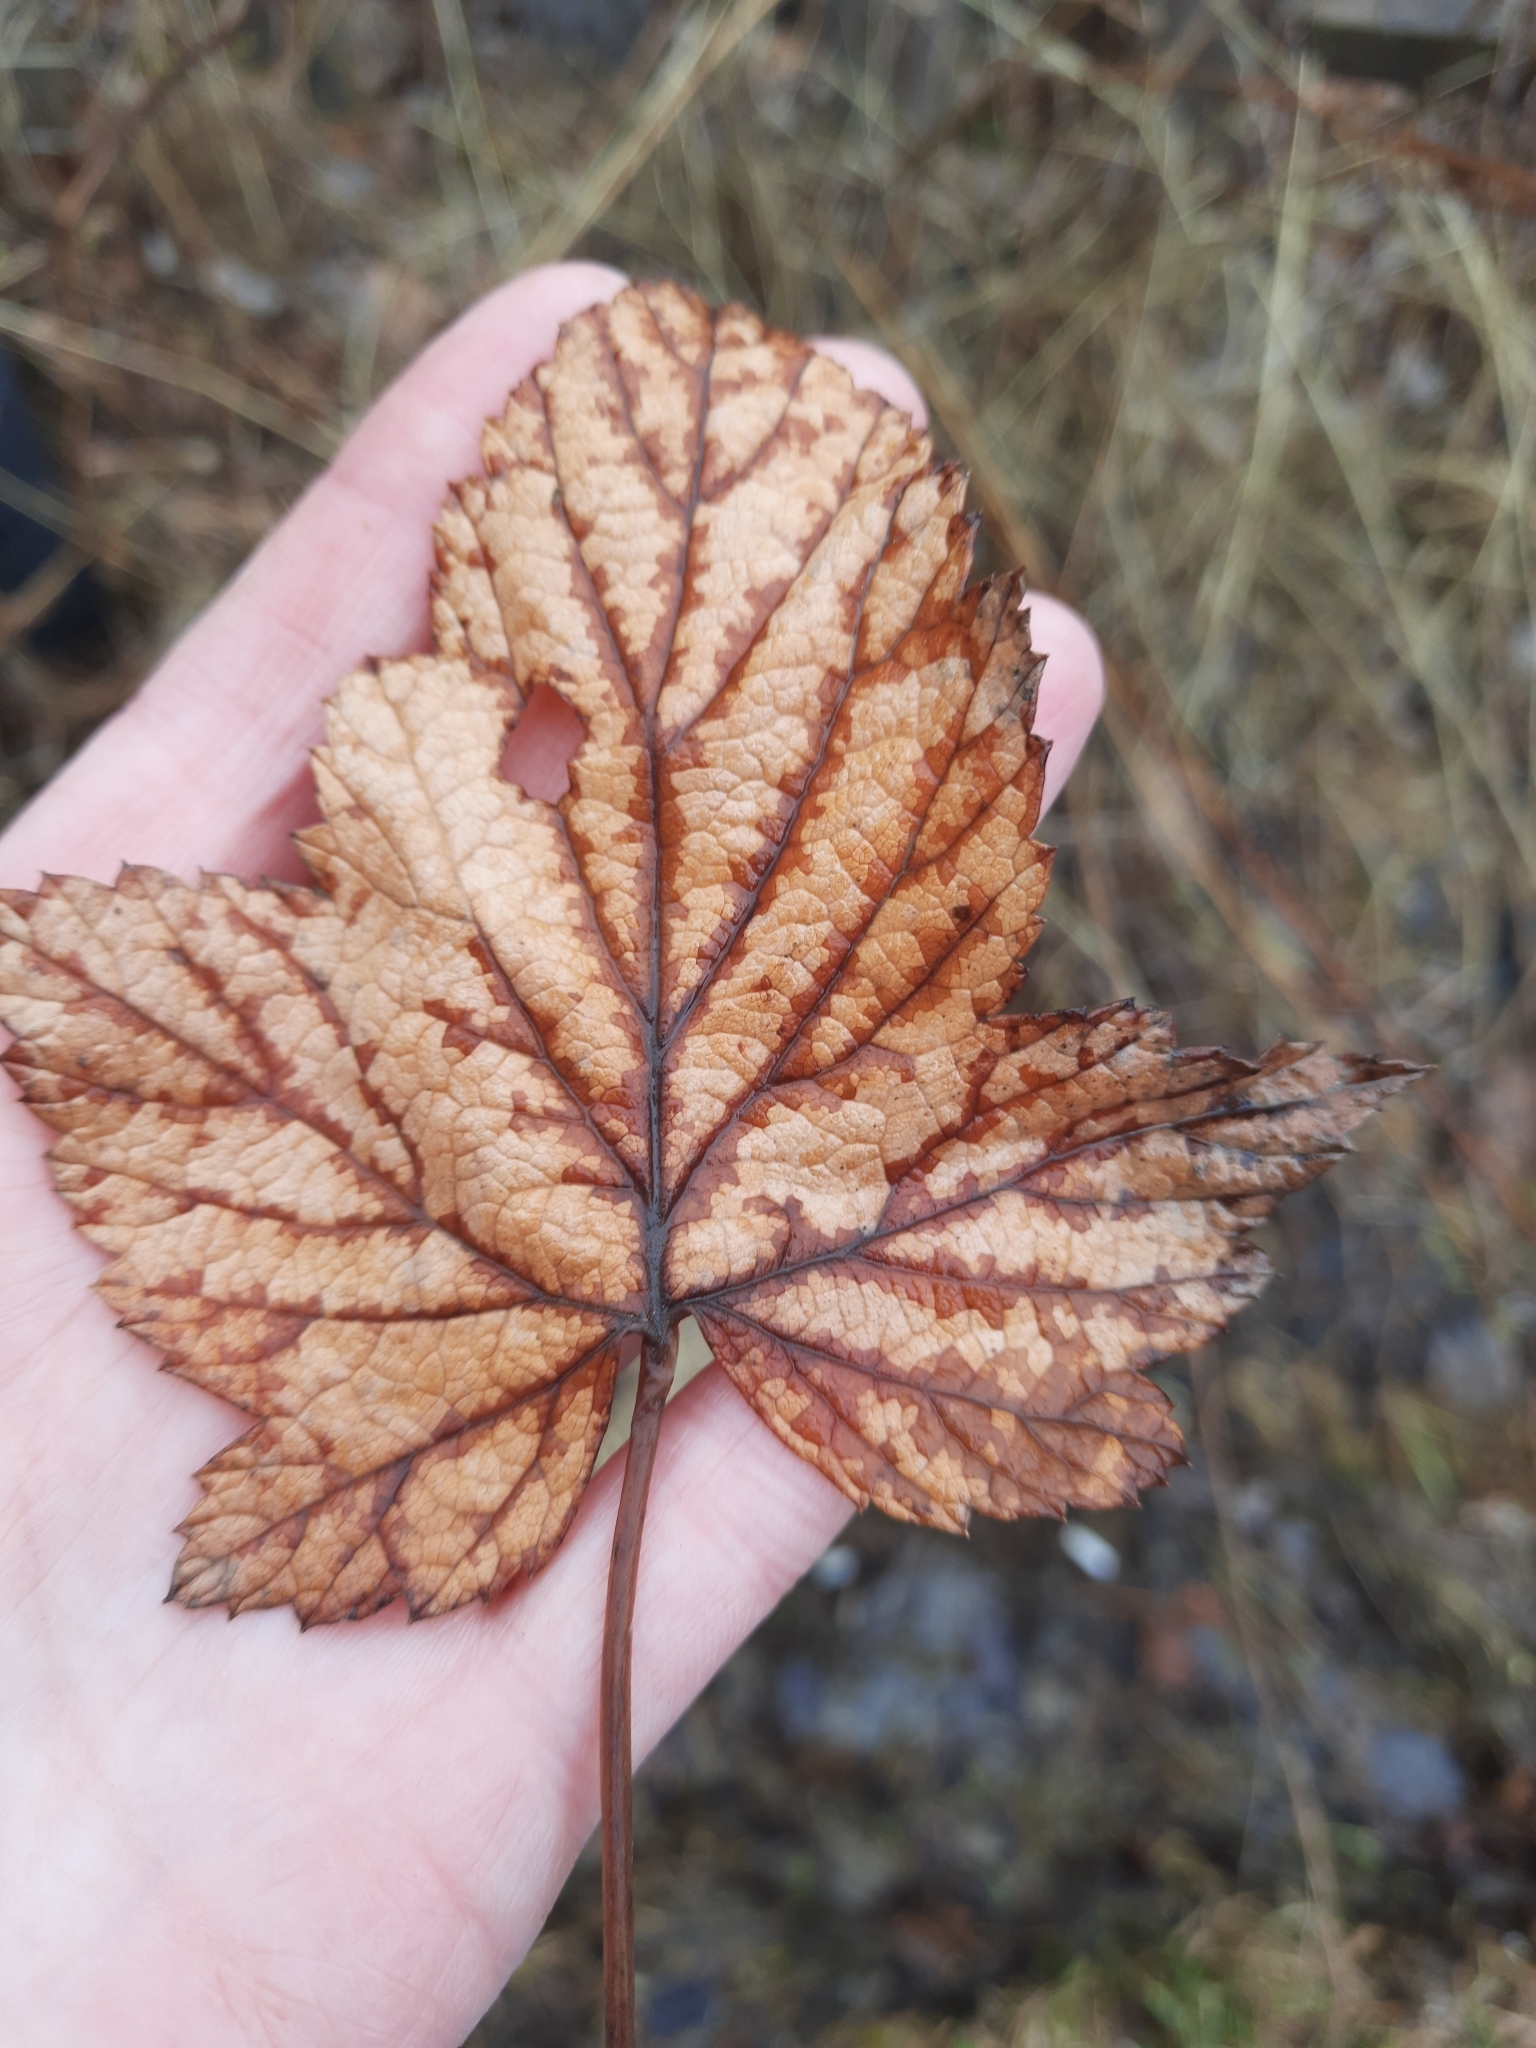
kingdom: Plantae
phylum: Tracheophyta
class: Magnoliopsida
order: Saxifragales
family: Grossulariaceae
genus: Ribes
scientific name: Ribes nigrum
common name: Black currant
